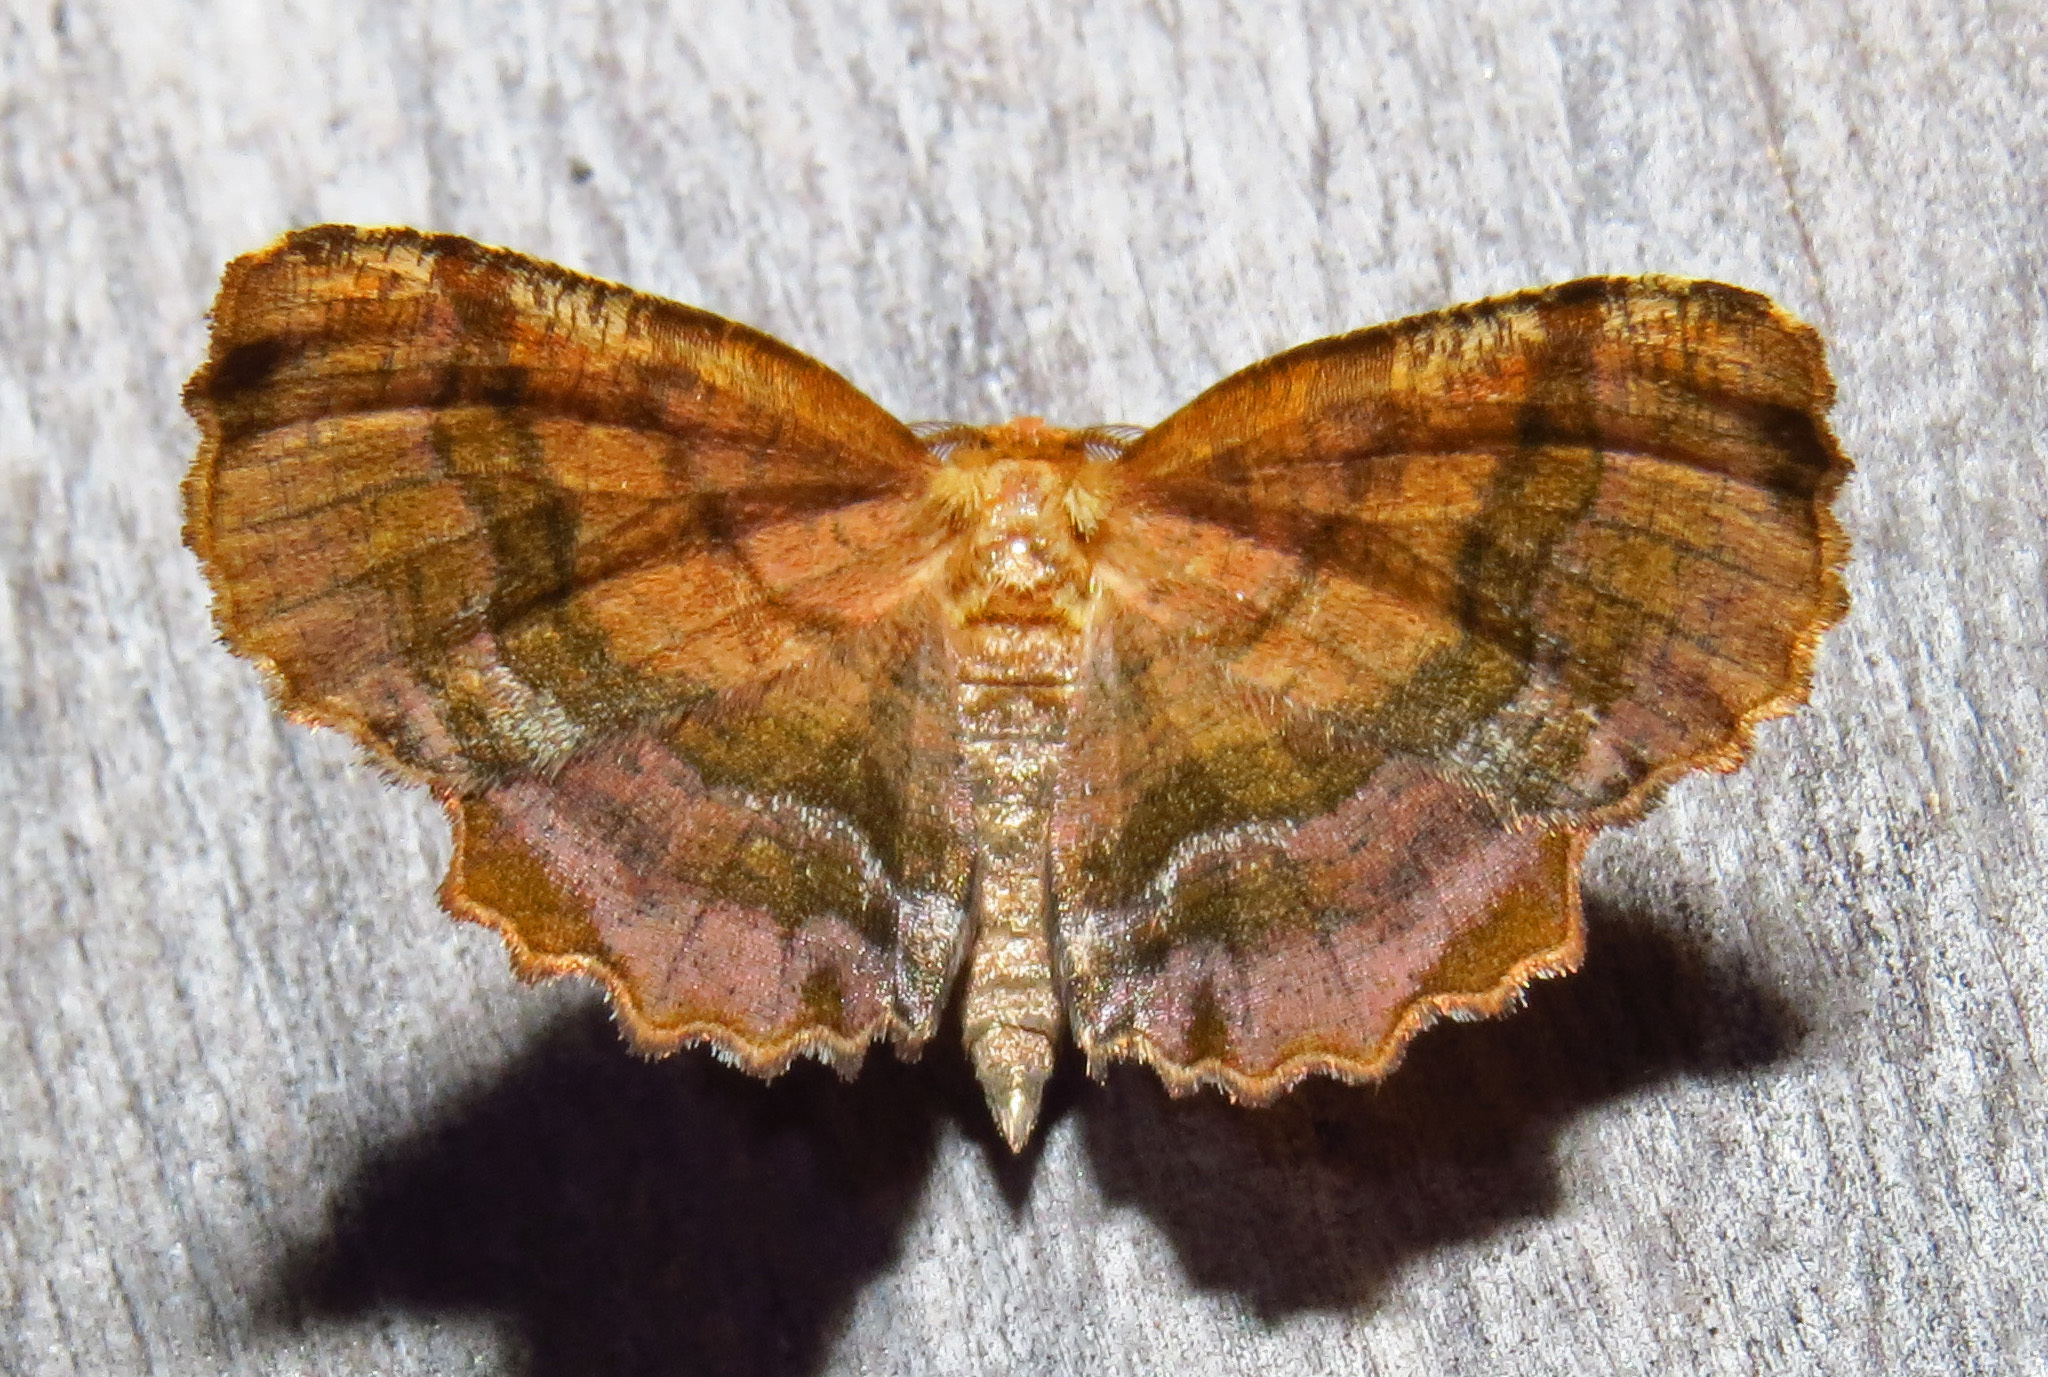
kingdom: Animalia
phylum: Arthropoda
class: Insecta
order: Lepidoptera
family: Geometridae
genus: Cepphis
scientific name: Cepphis armataria
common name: Scallop moth
